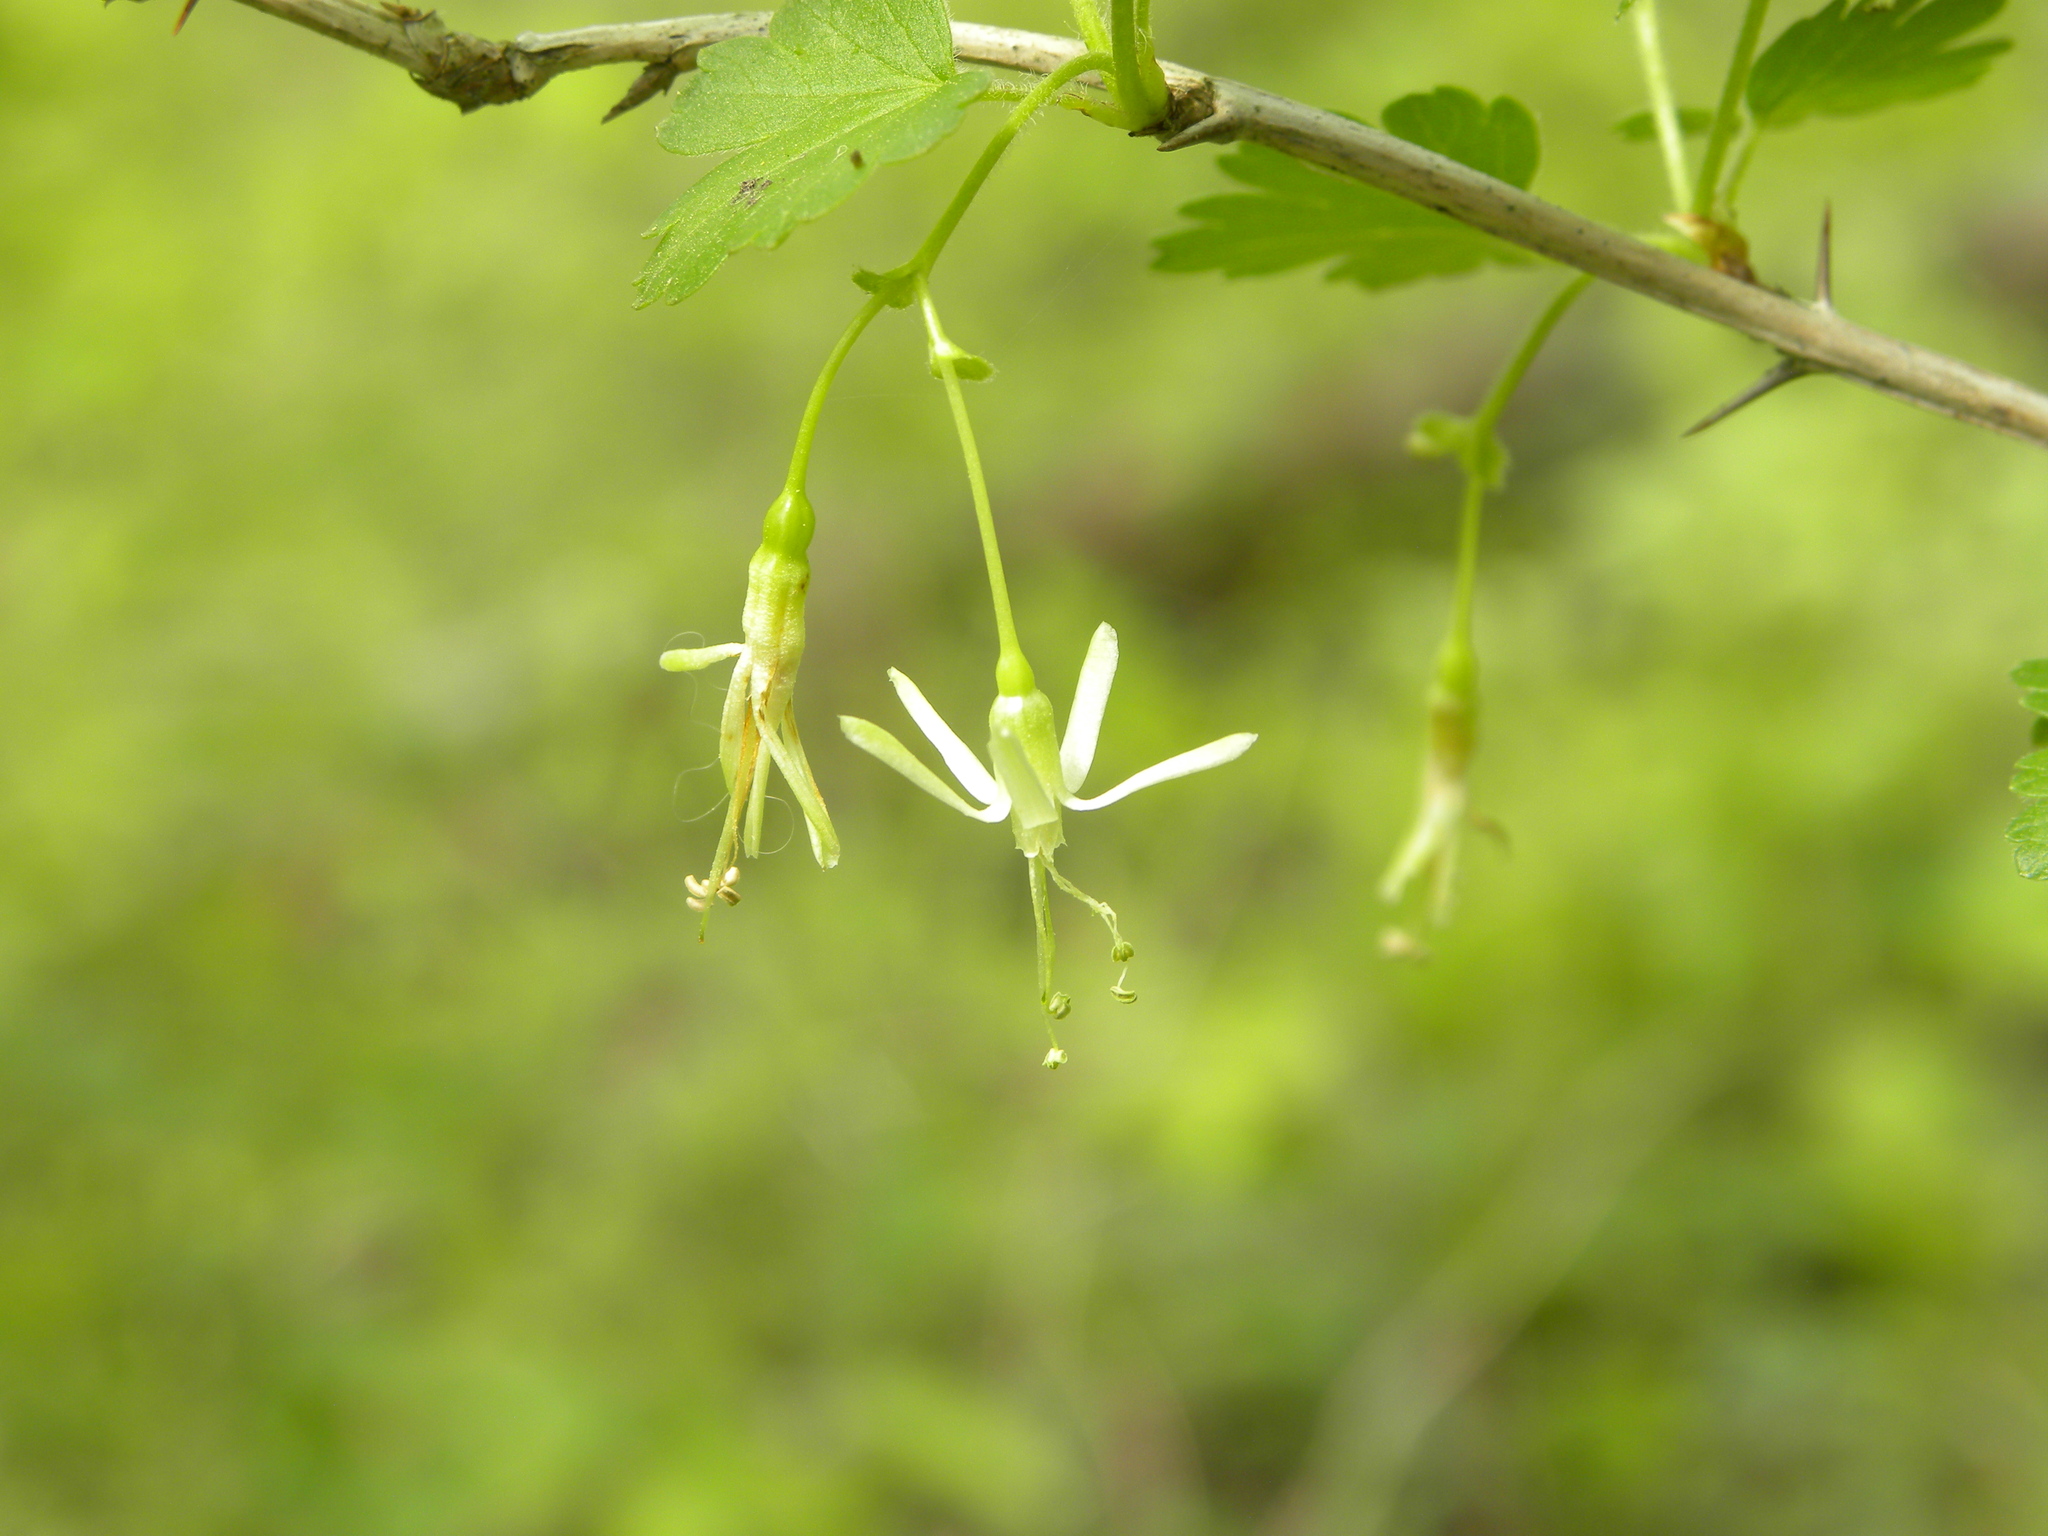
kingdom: Plantae
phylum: Tracheophyta
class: Magnoliopsida
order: Saxifragales
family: Grossulariaceae
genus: Ribes
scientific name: Ribes missouriense
